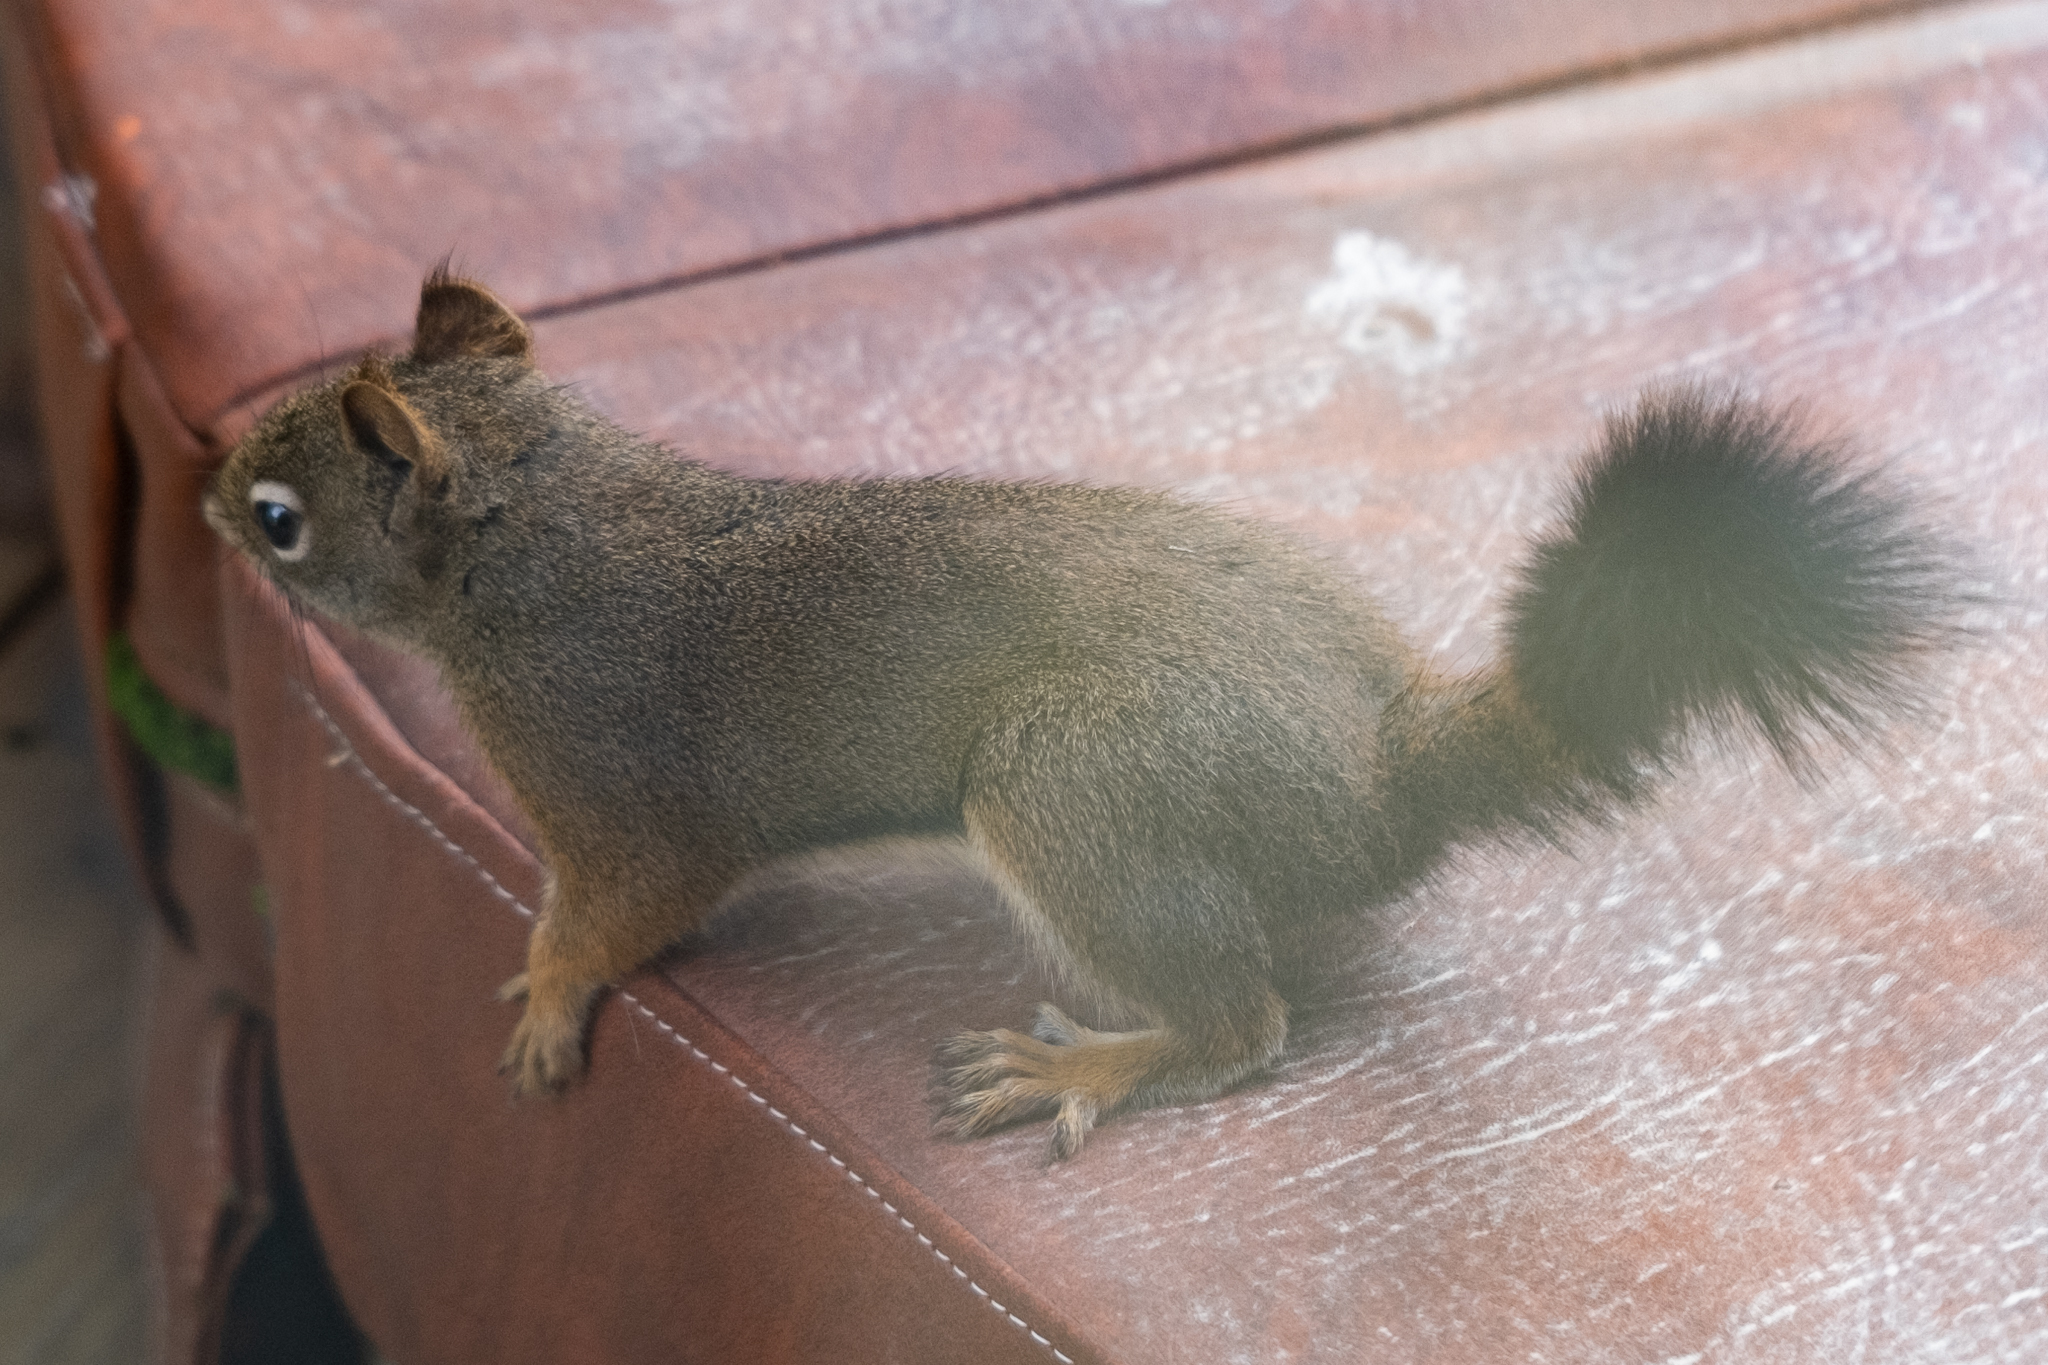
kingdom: Animalia
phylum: Chordata
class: Mammalia
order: Rodentia
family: Sciuridae
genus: Tamiasciurus
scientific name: Tamiasciurus hudsonicus
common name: Red squirrel
